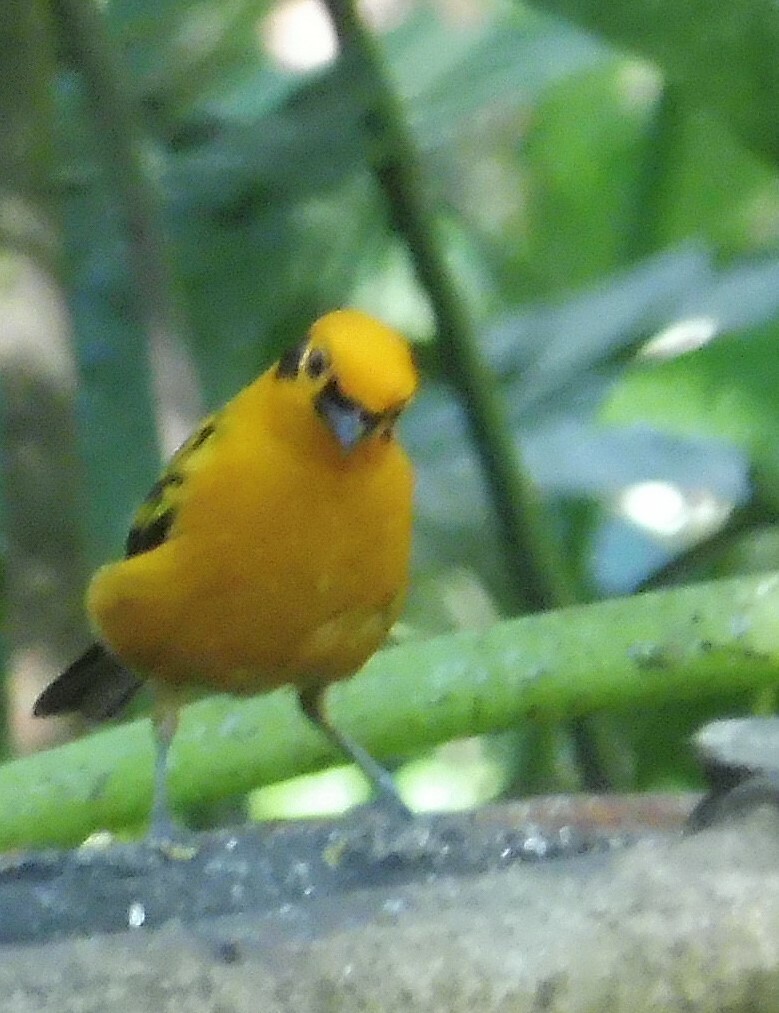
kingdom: Animalia
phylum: Chordata
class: Aves
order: Passeriformes
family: Thraupidae
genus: Tangara
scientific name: Tangara arthus
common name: Golden tanager
